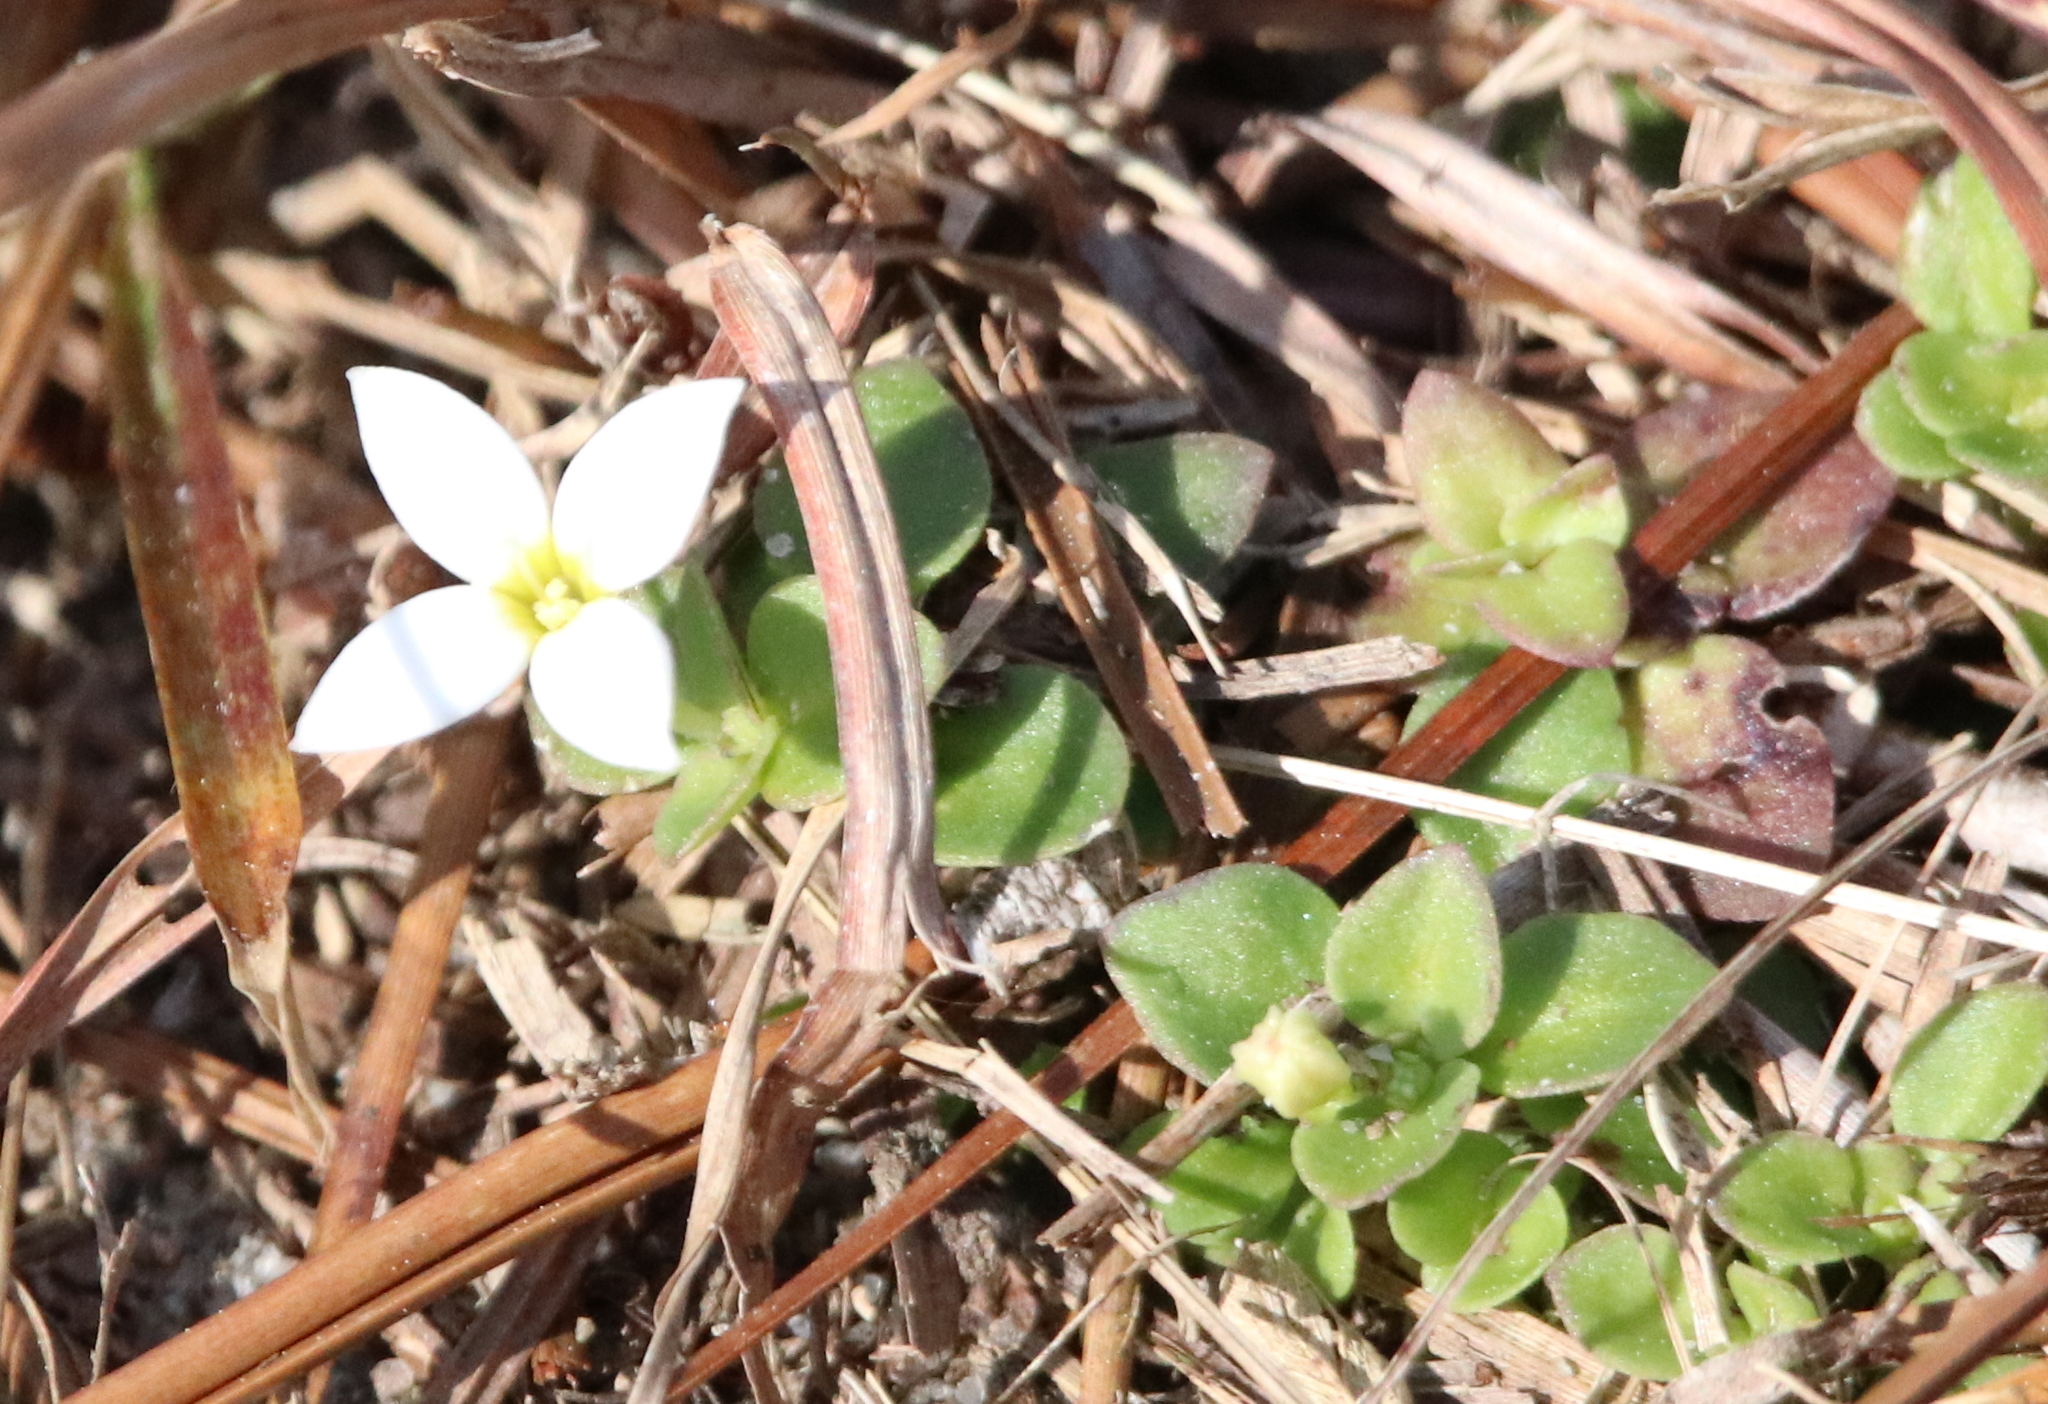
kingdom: Plantae
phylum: Tracheophyta
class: Magnoliopsida
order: Gentianales
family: Rubiaceae
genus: Houstonia
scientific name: Houstonia procumbens
